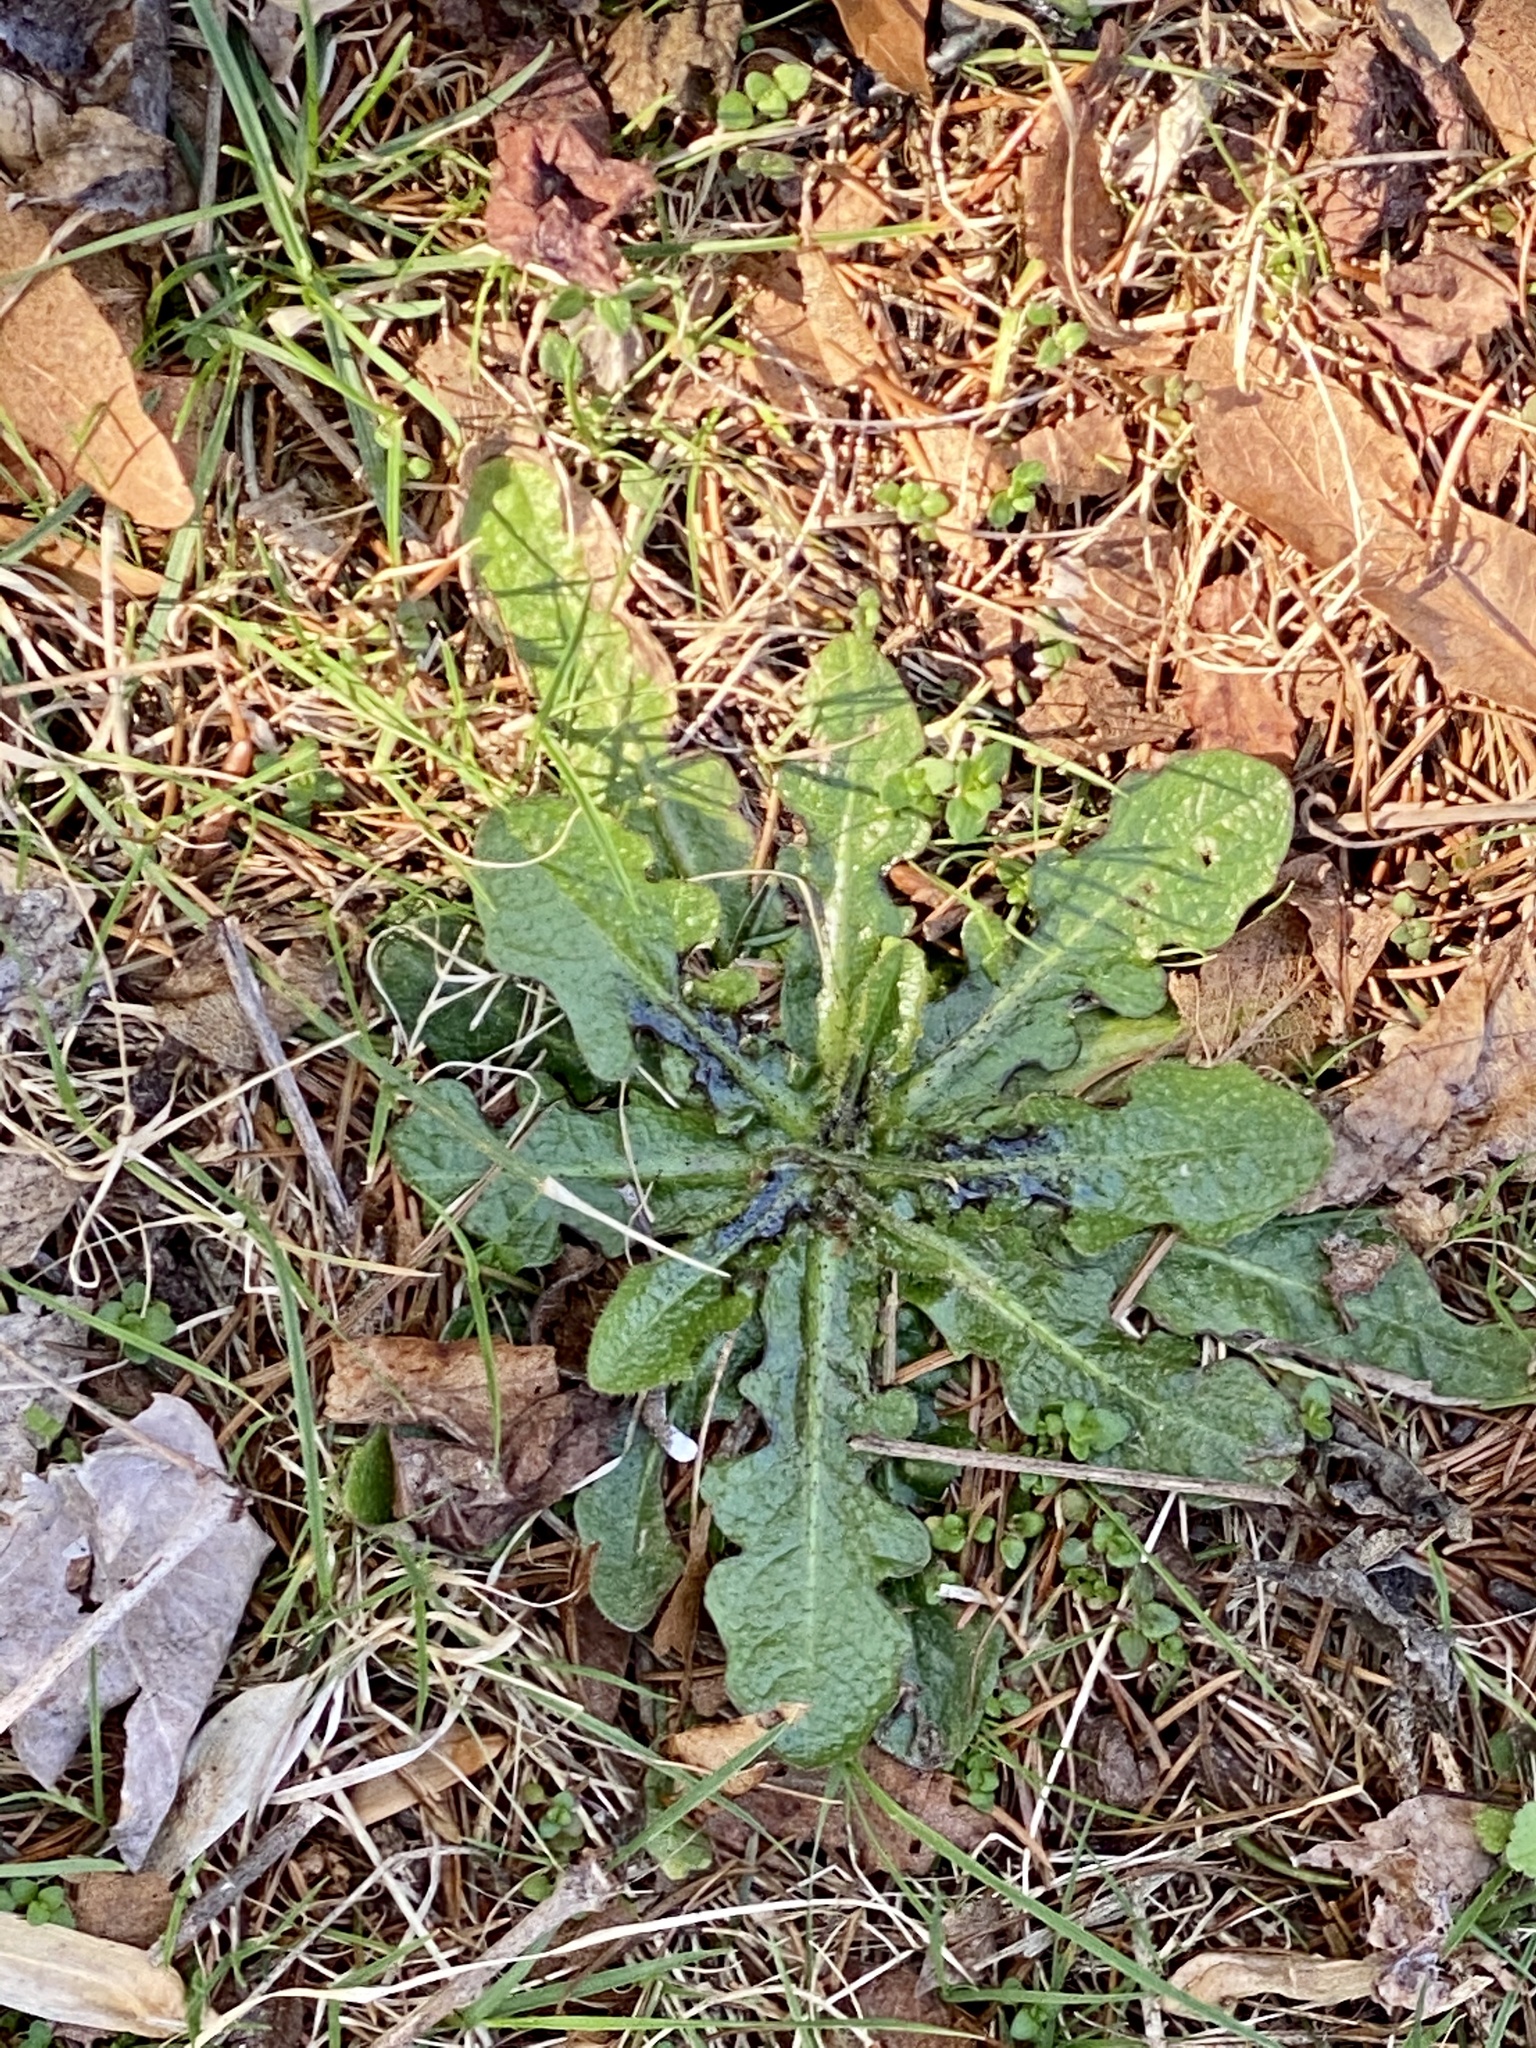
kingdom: Plantae
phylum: Tracheophyta
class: Magnoliopsida
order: Asterales
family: Asteraceae
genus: Hypochaeris
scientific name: Hypochaeris radicata
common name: Flatweed
